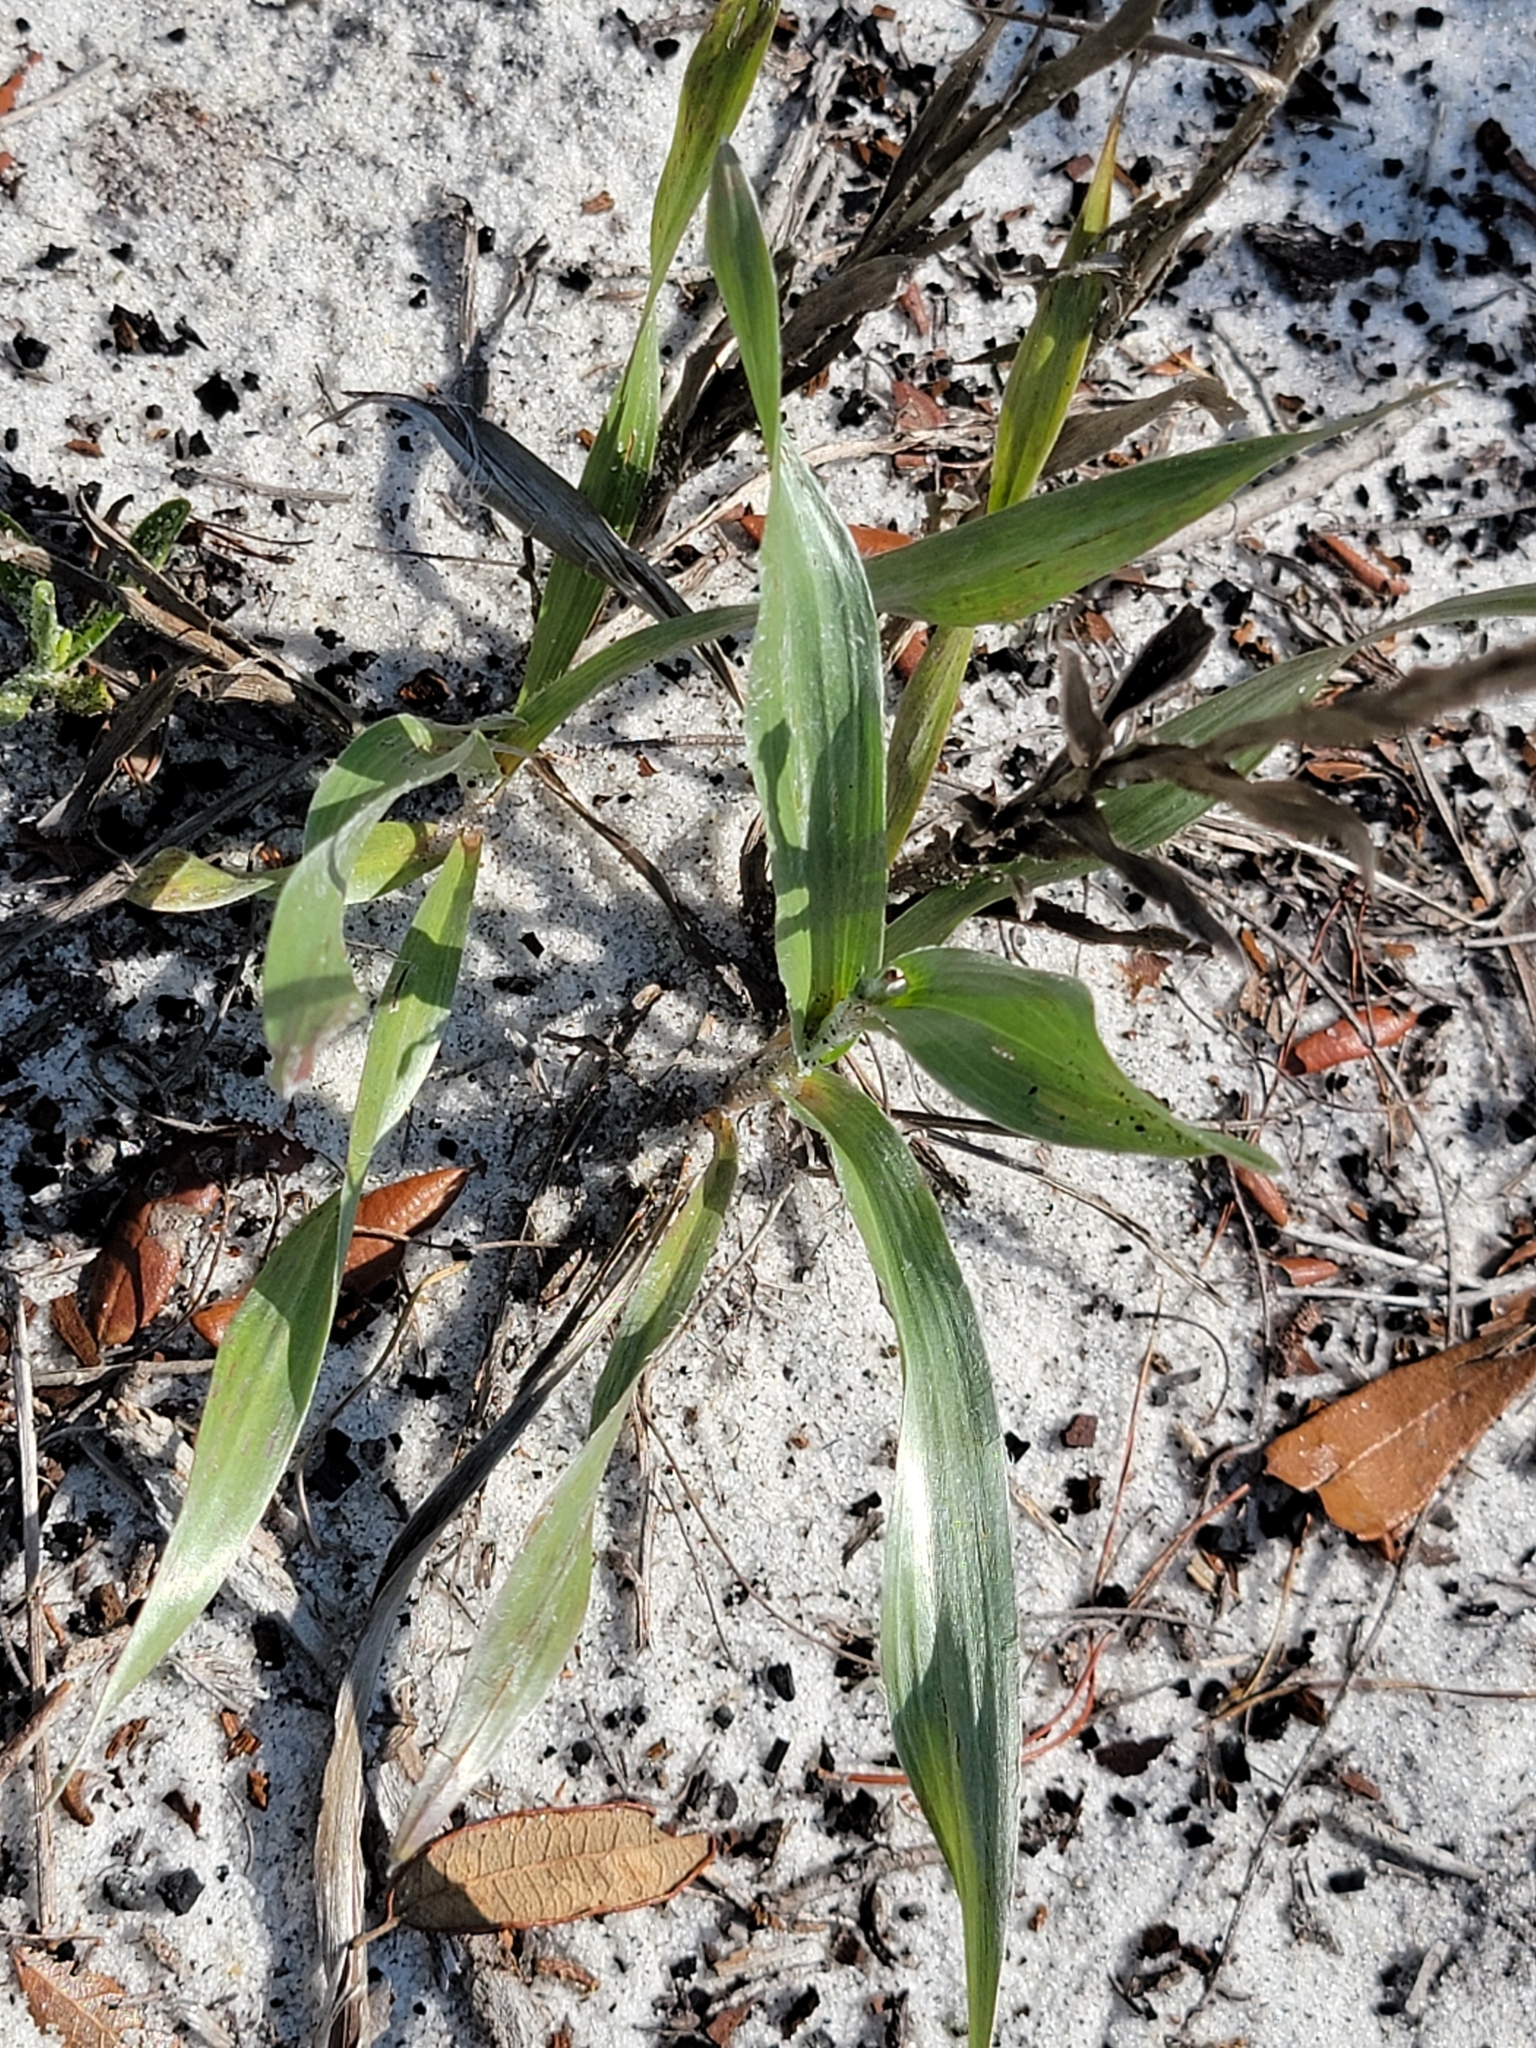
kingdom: Plantae
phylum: Tracheophyta
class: Magnoliopsida
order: Asterales
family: Asteraceae
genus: Pityopsis
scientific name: Pityopsis latifolia
